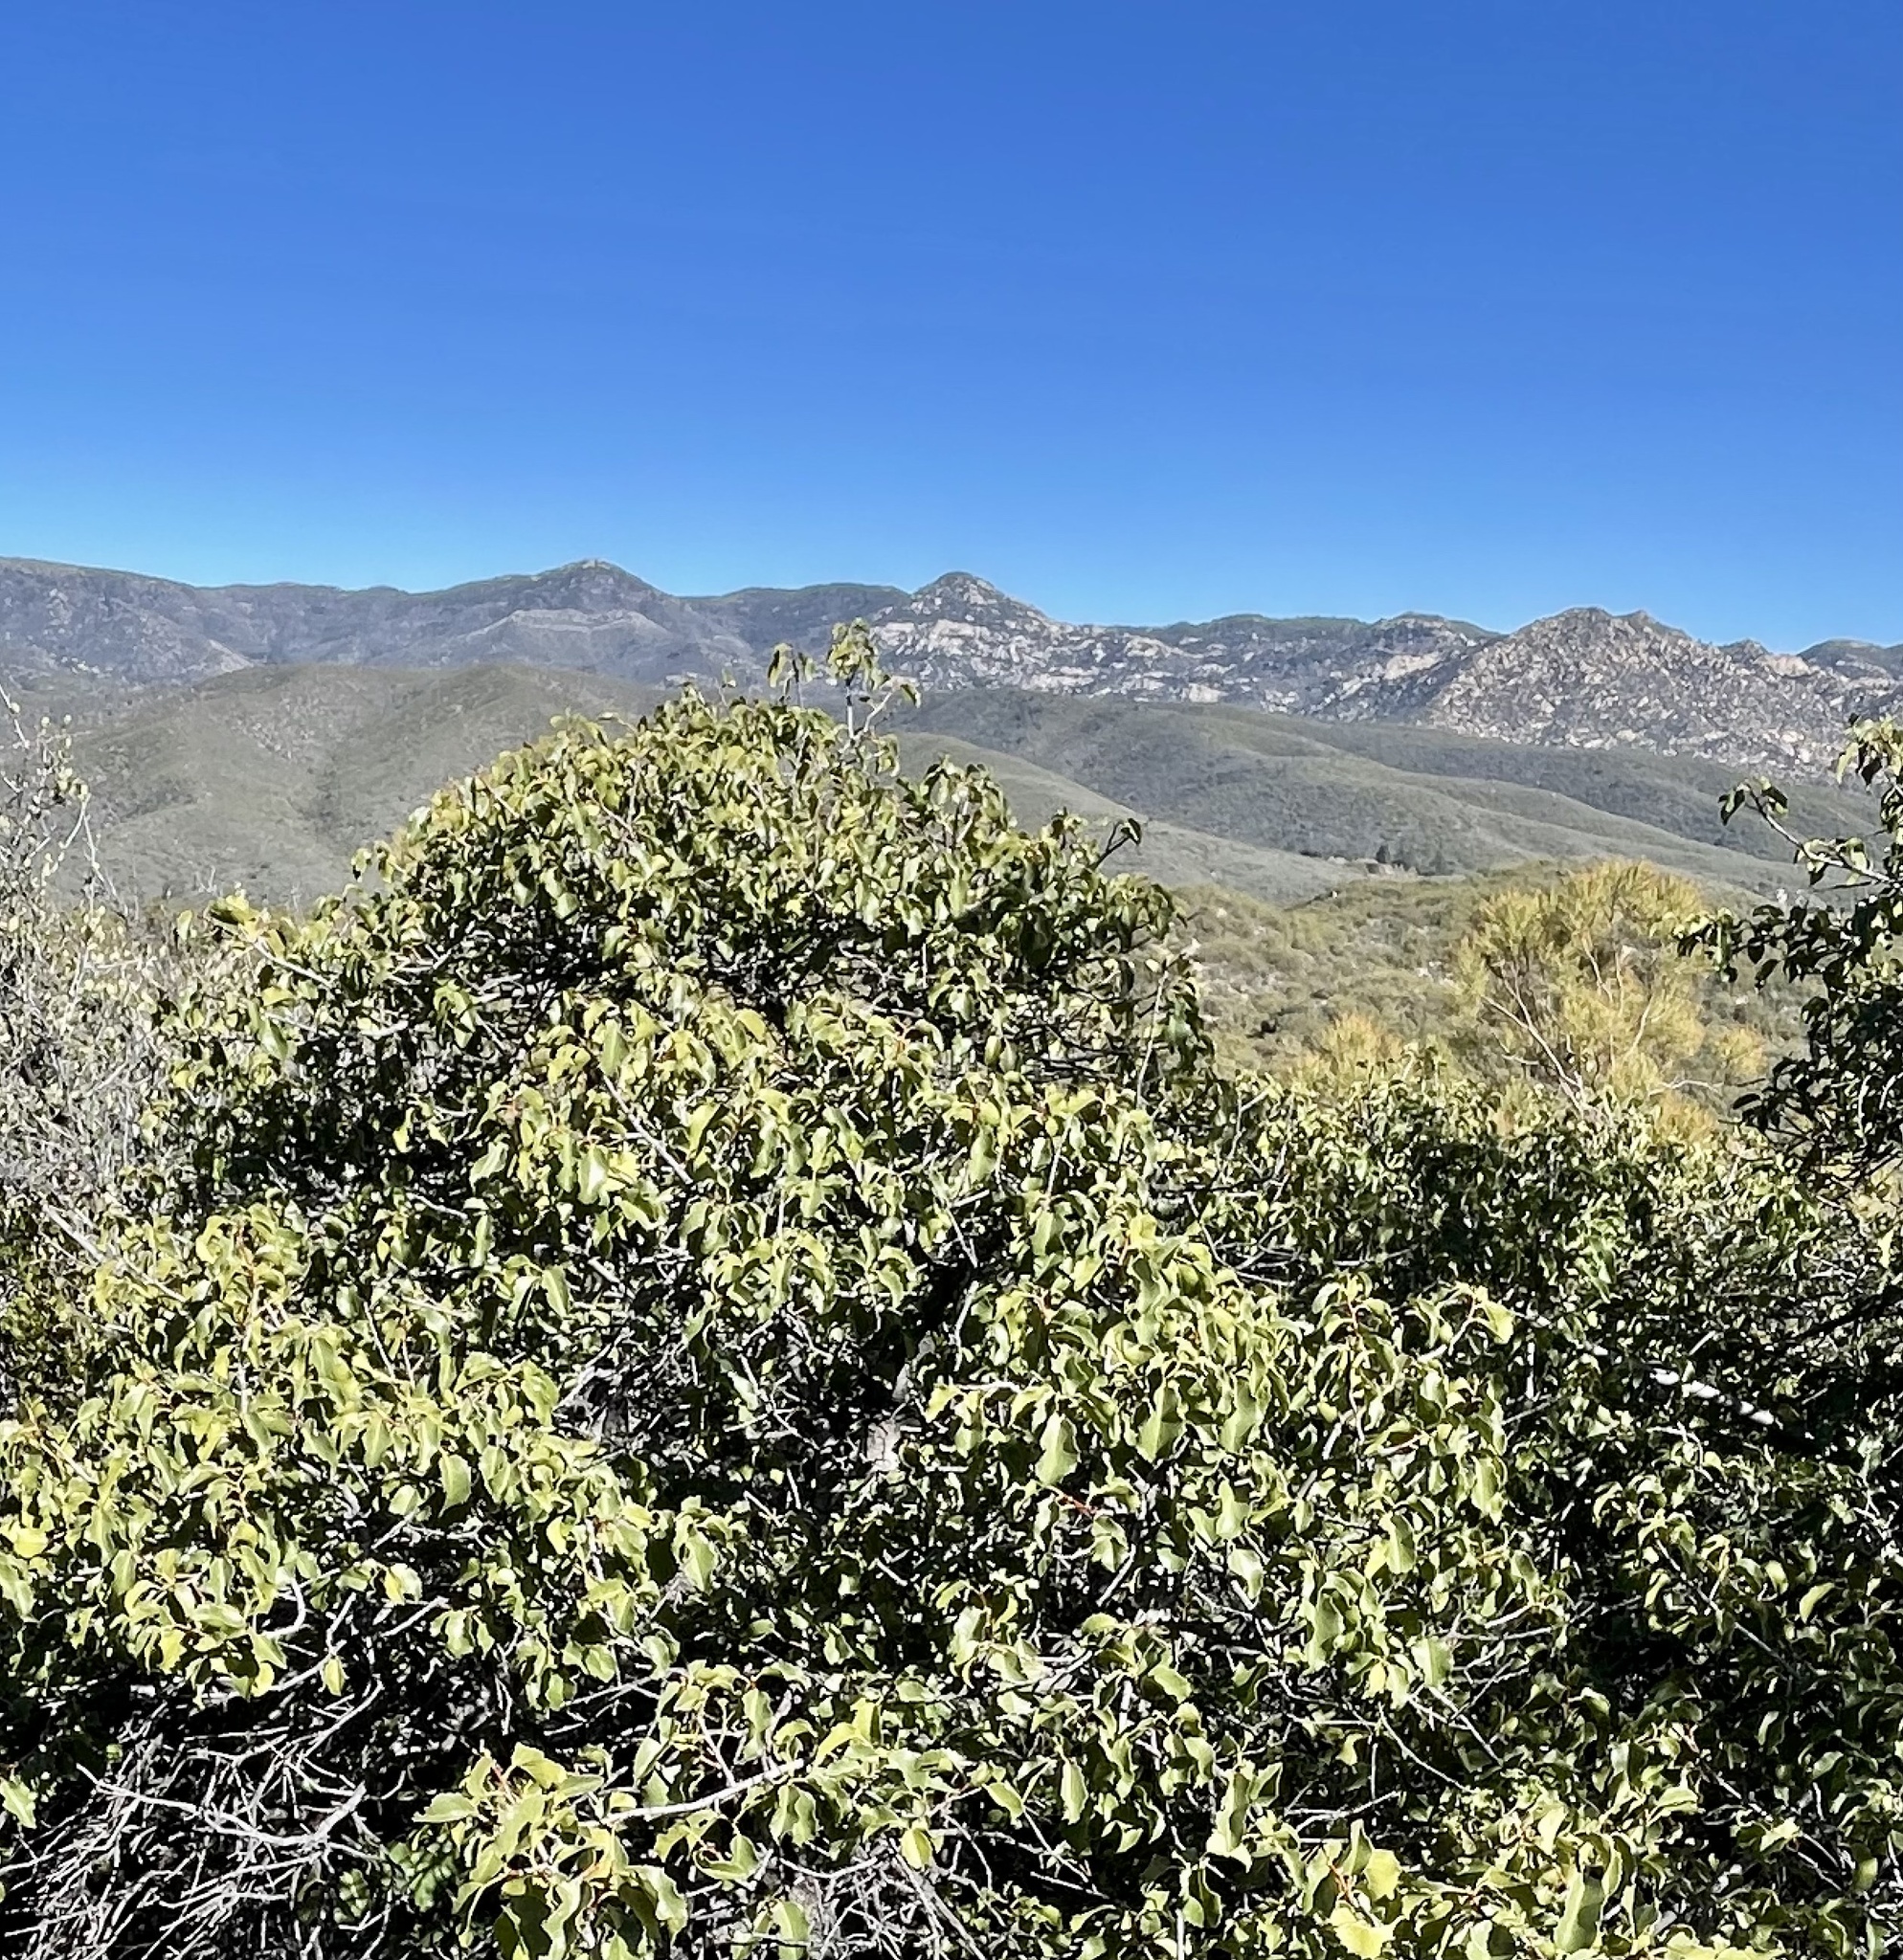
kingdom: Plantae
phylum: Tracheophyta
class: Magnoliopsida
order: Rosales
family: Rosaceae
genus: Prunus
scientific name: Prunus ilicifolia
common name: Hollyleaf cherry
